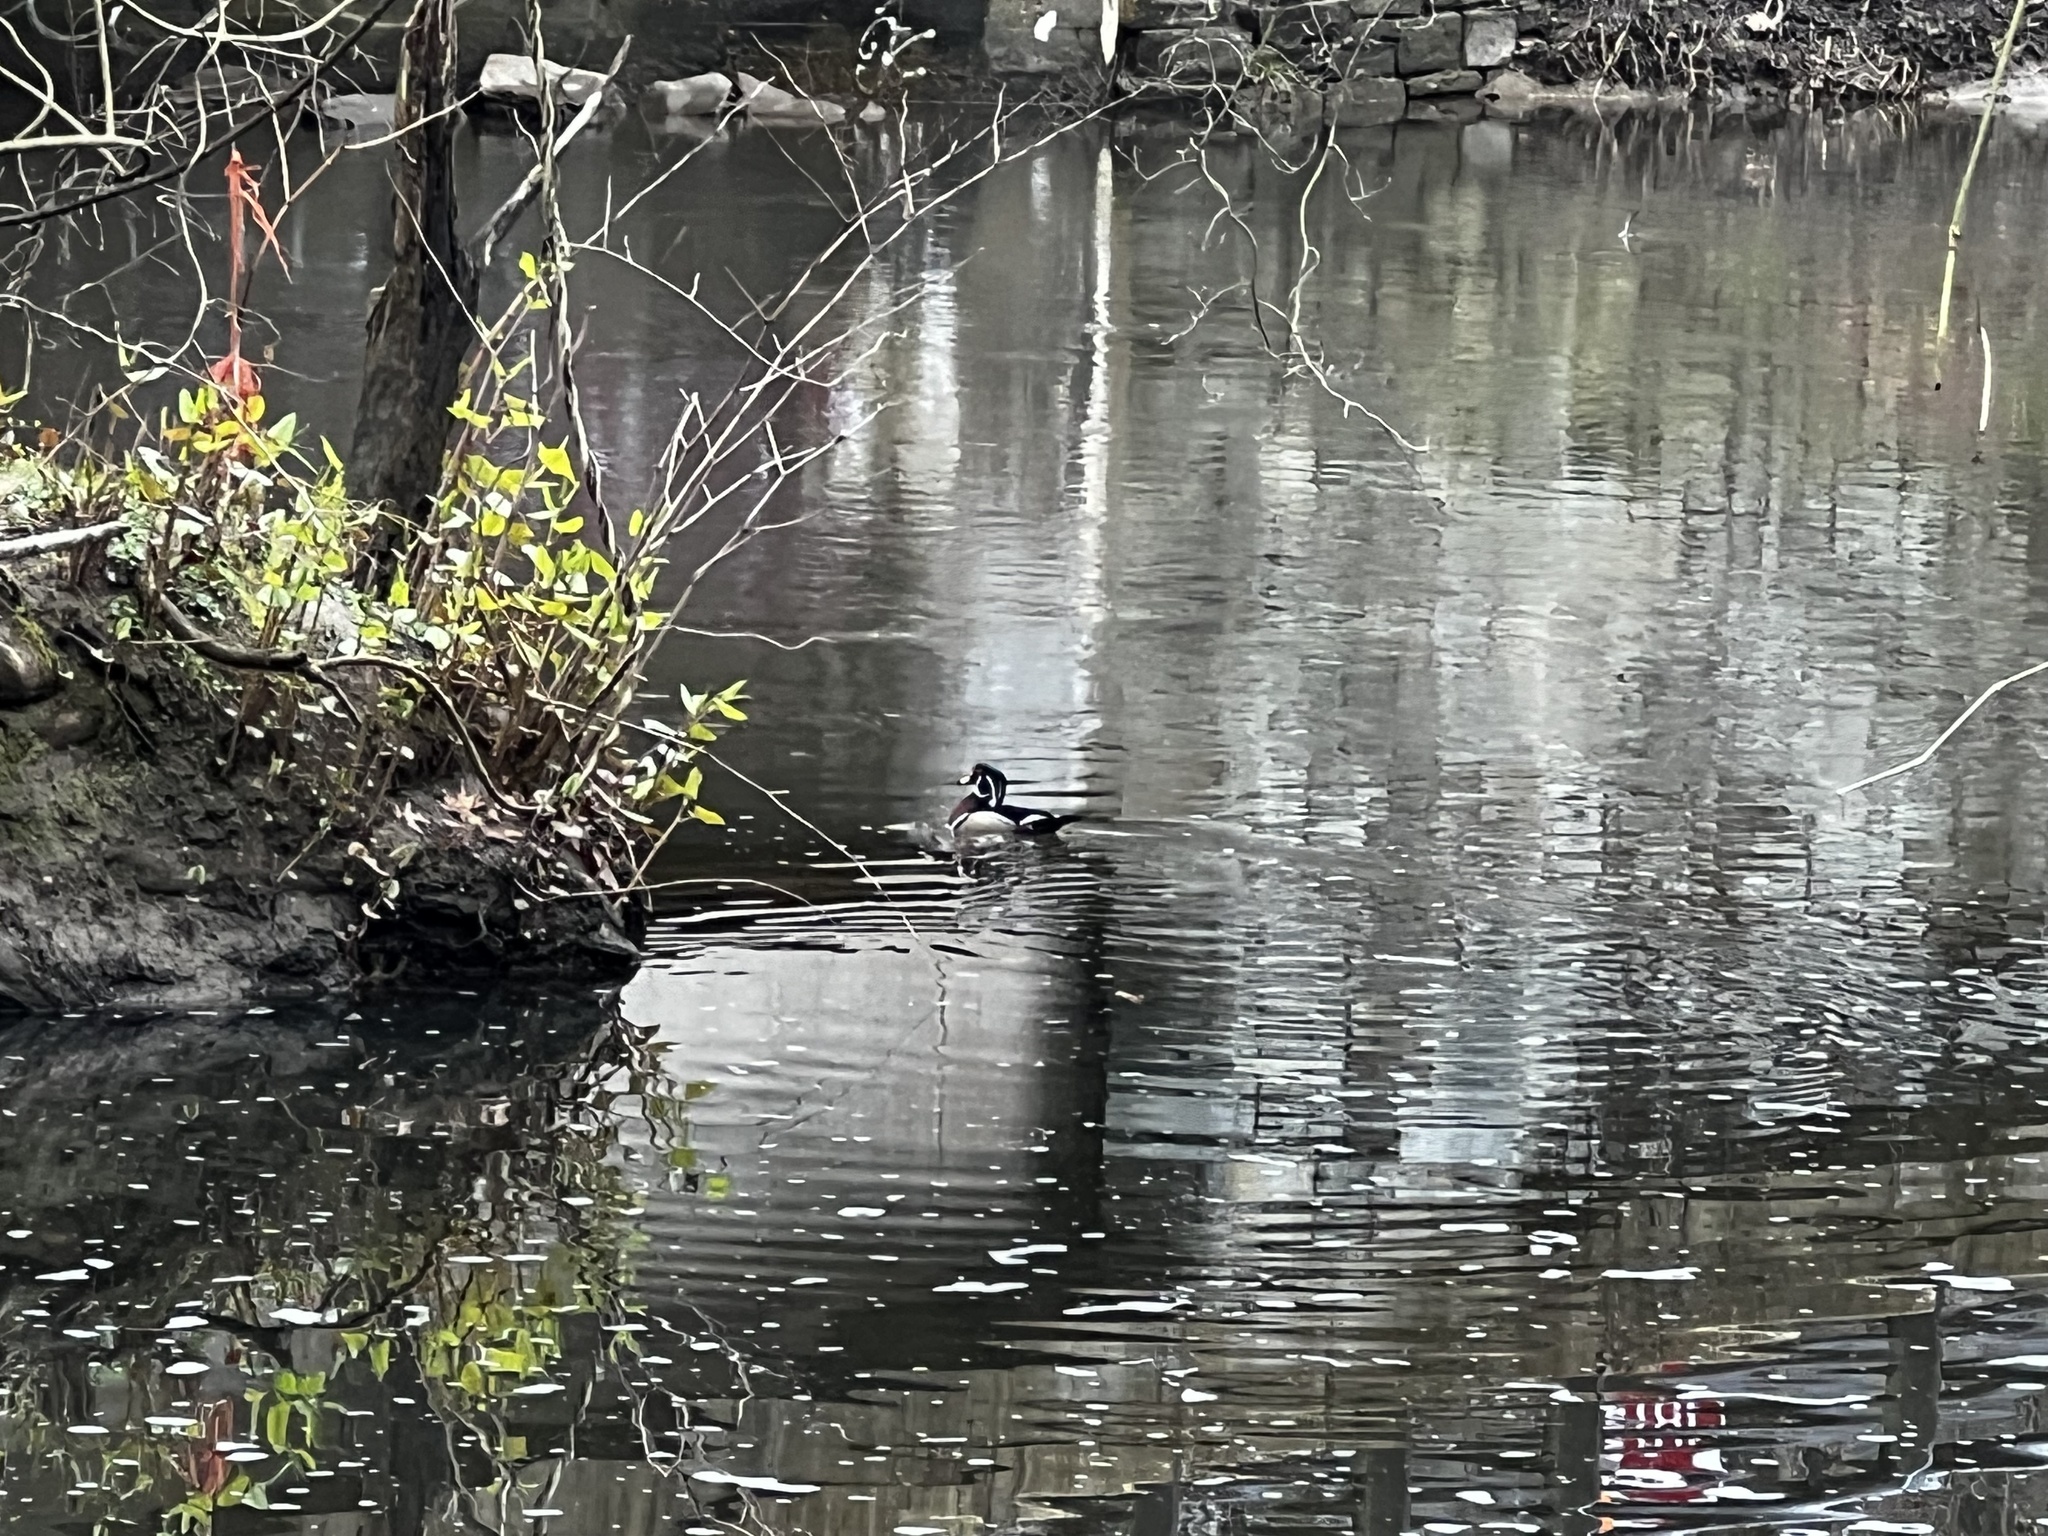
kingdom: Animalia
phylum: Chordata
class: Aves
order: Anseriformes
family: Anatidae
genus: Aix
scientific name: Aix sponsa
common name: Wood duck
